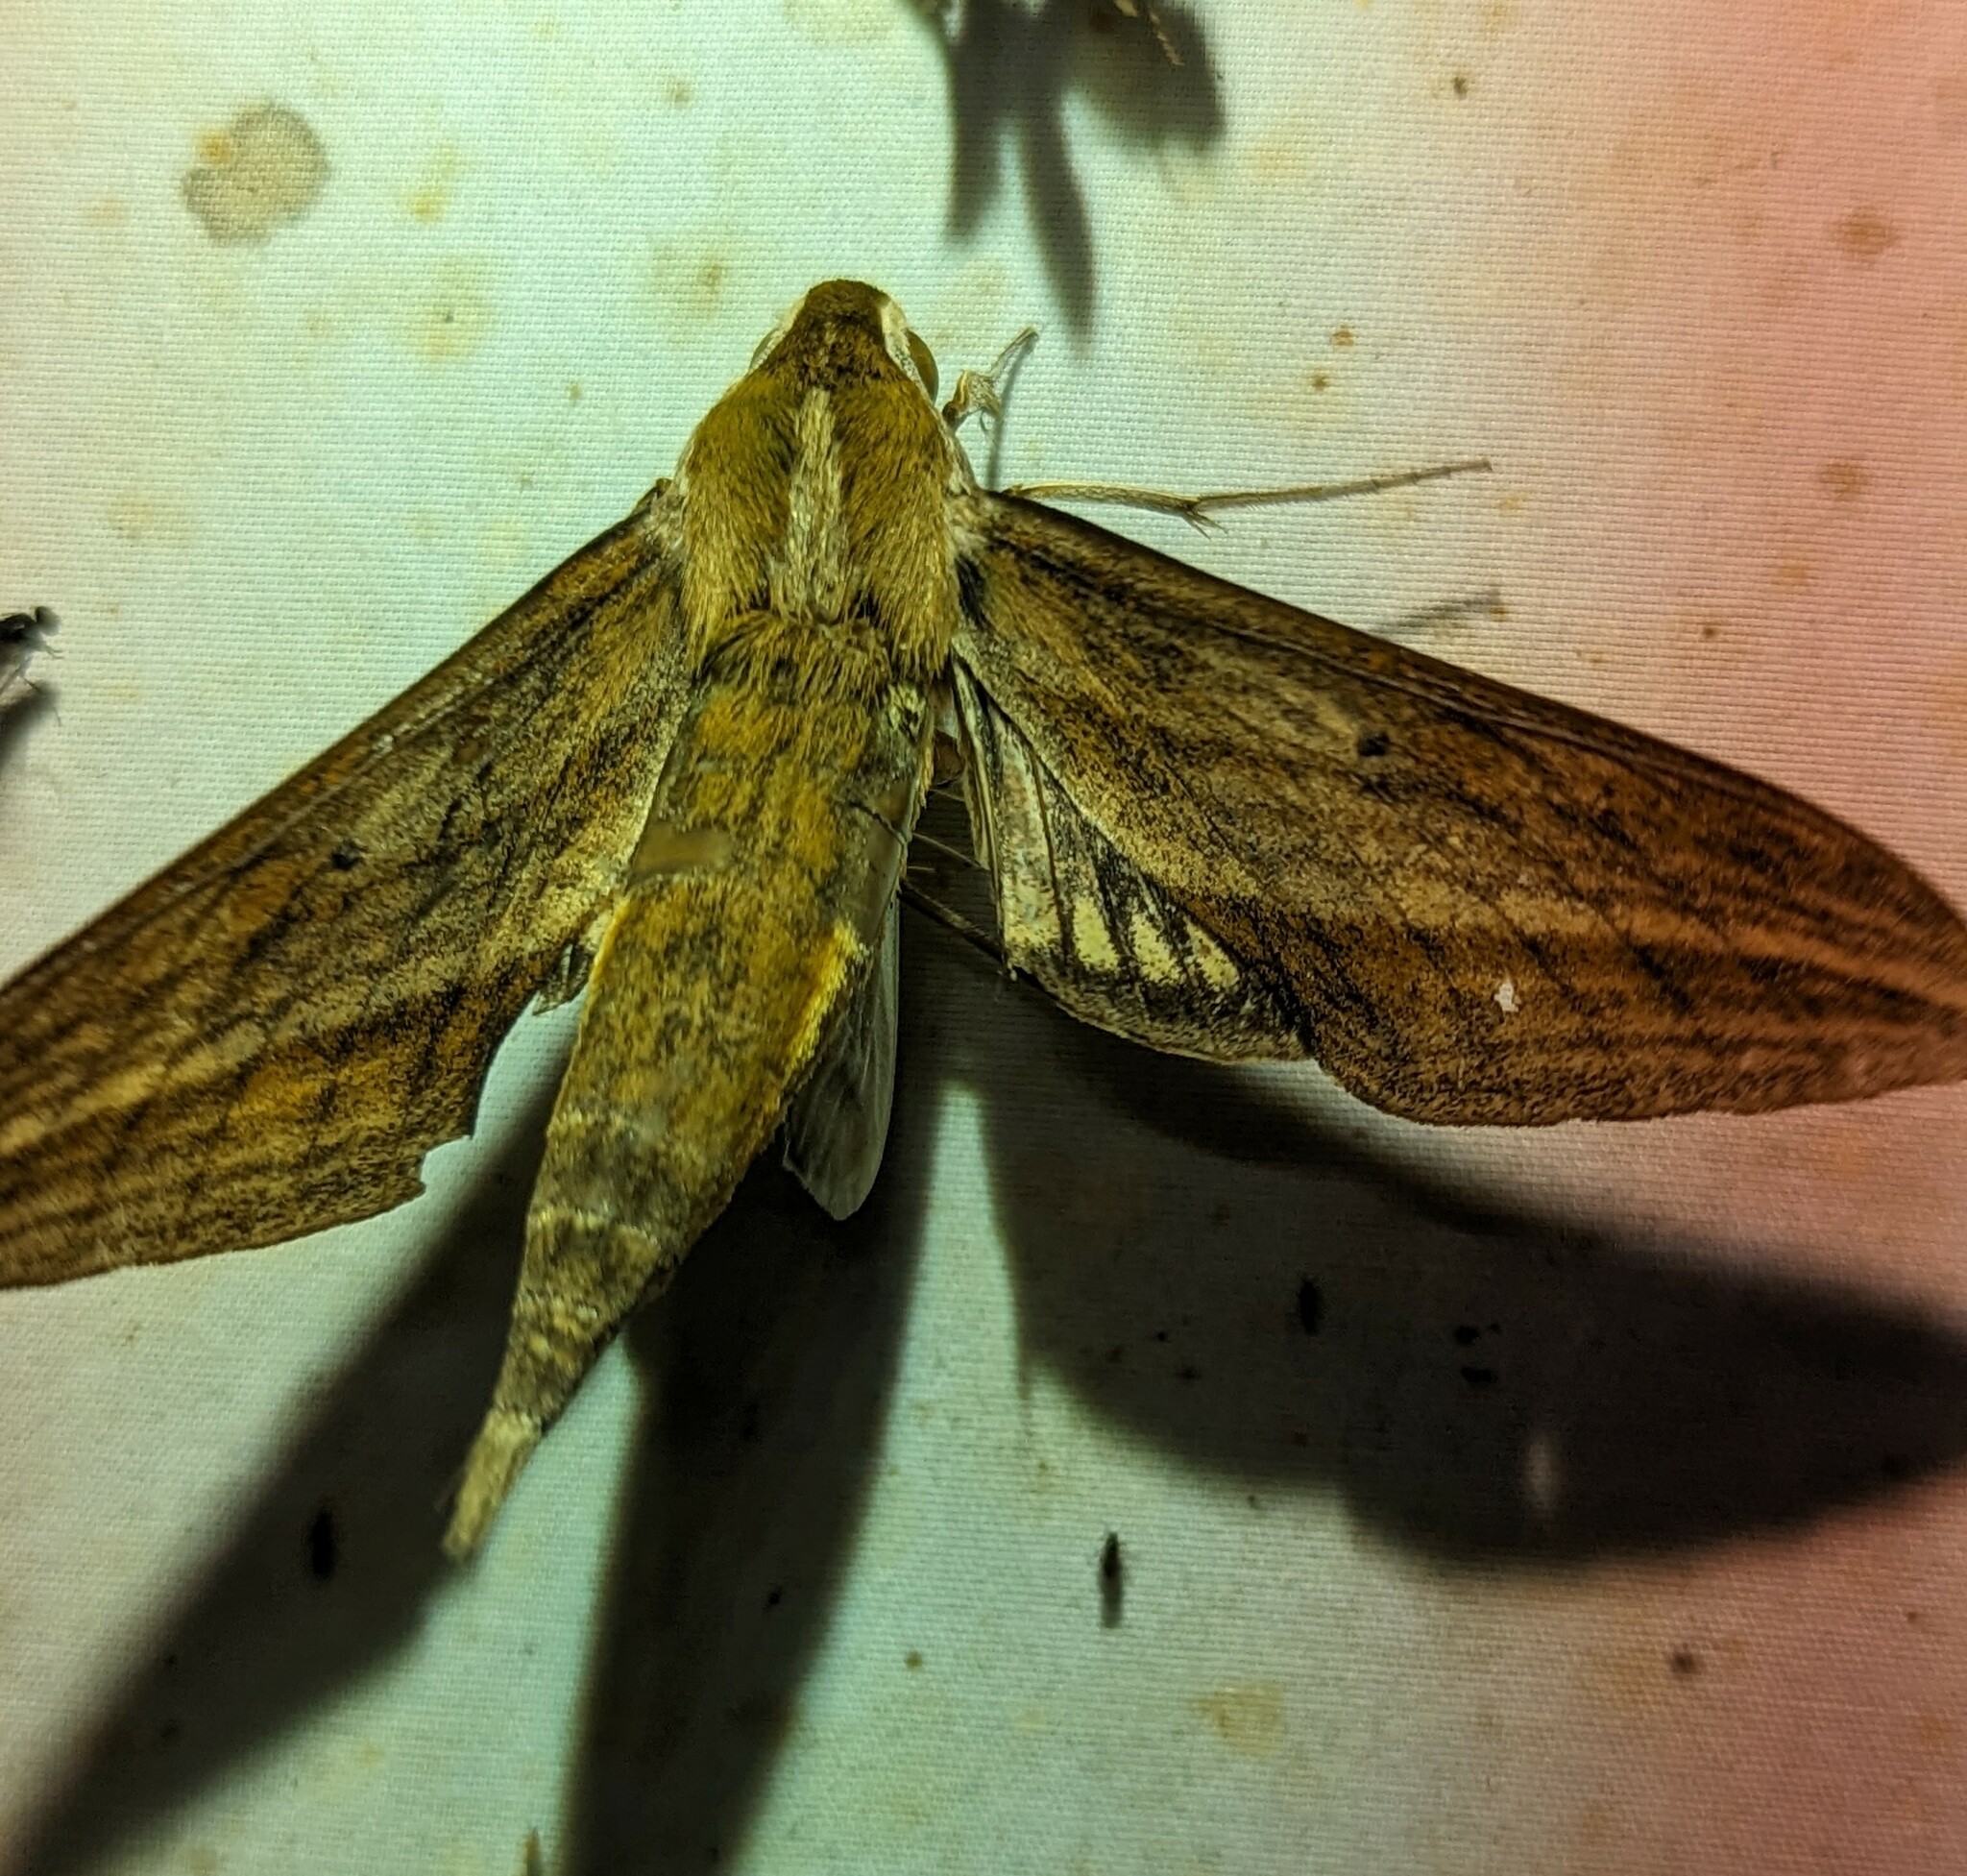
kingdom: Animalia
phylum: Arthropoda
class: Insecta
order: Lepidoptera
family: Sphingidae
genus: Xylophanes
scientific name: Xylophanes barbuti
